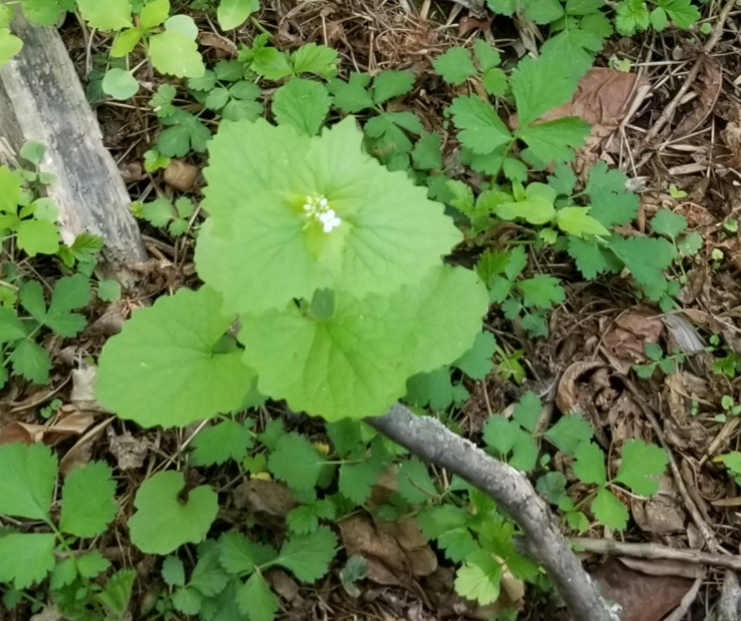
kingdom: Plantae
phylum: Tracheophyta
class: Magnoliopsida
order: Brassicales
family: Brassicaceae
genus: Alliaria
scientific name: Alliaria petiolata
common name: Garlic mustard
